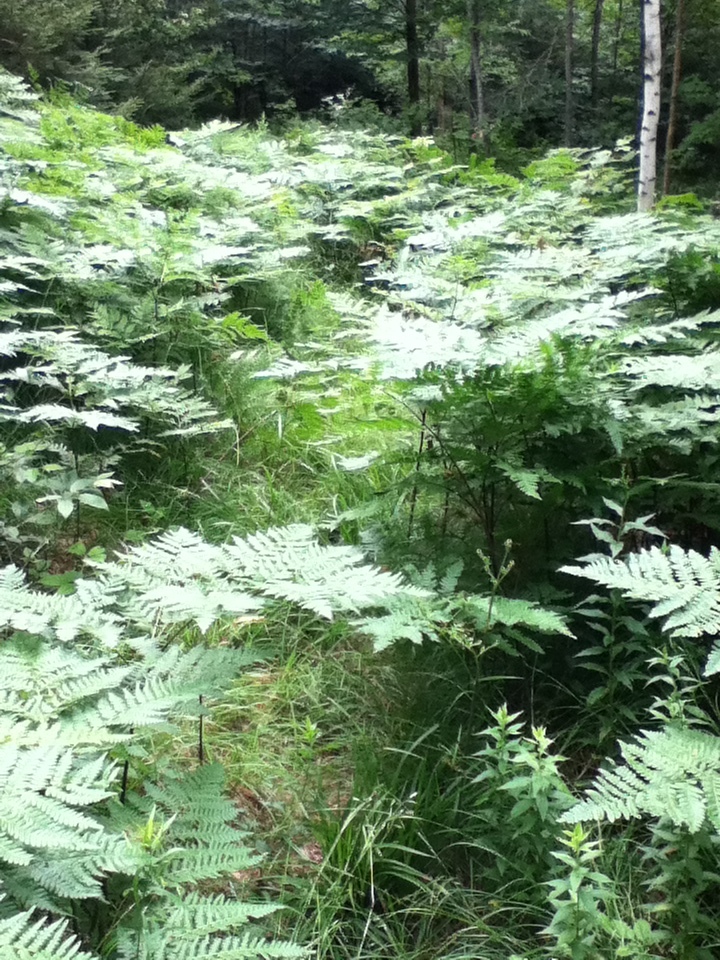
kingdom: Plantae
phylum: Tracheophyta
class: Polypodiopsida
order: Polypodiales
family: Dennstaedtiaceae
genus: Pteridium
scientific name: Pteridium aquilinum
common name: Bracken
